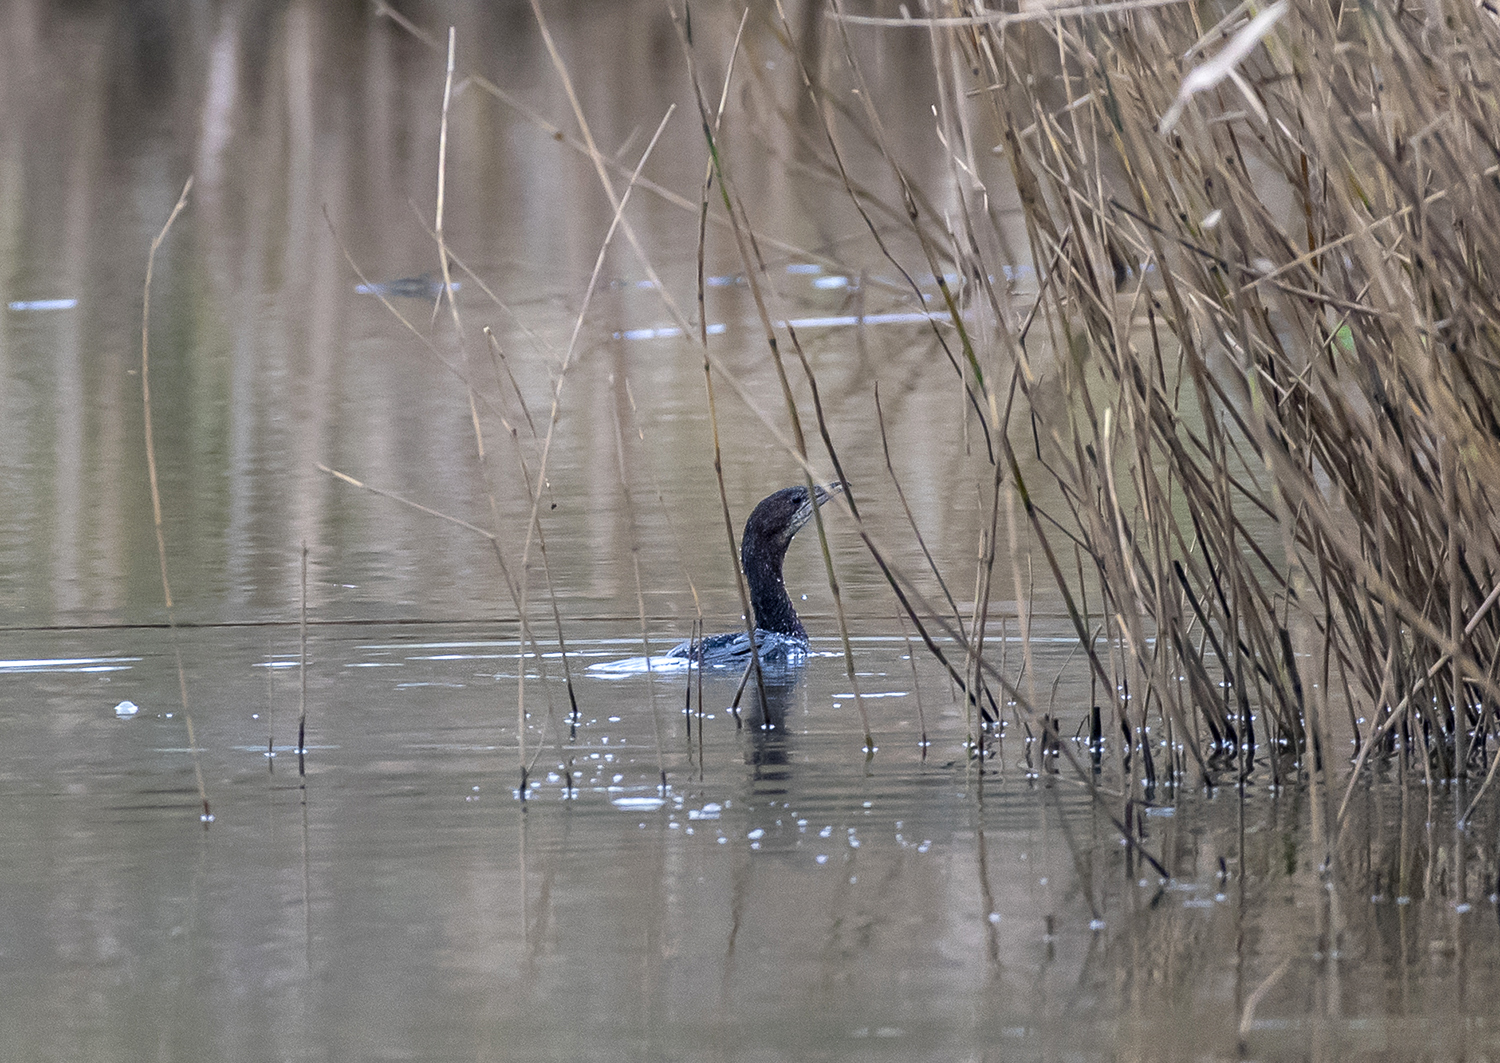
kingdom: Animalia
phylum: Chordata
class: Aves
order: Suliformes
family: Phalacrocoracidae
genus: Microcarbo
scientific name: Microcarbo pygmaeus
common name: Pygmy cormorant
